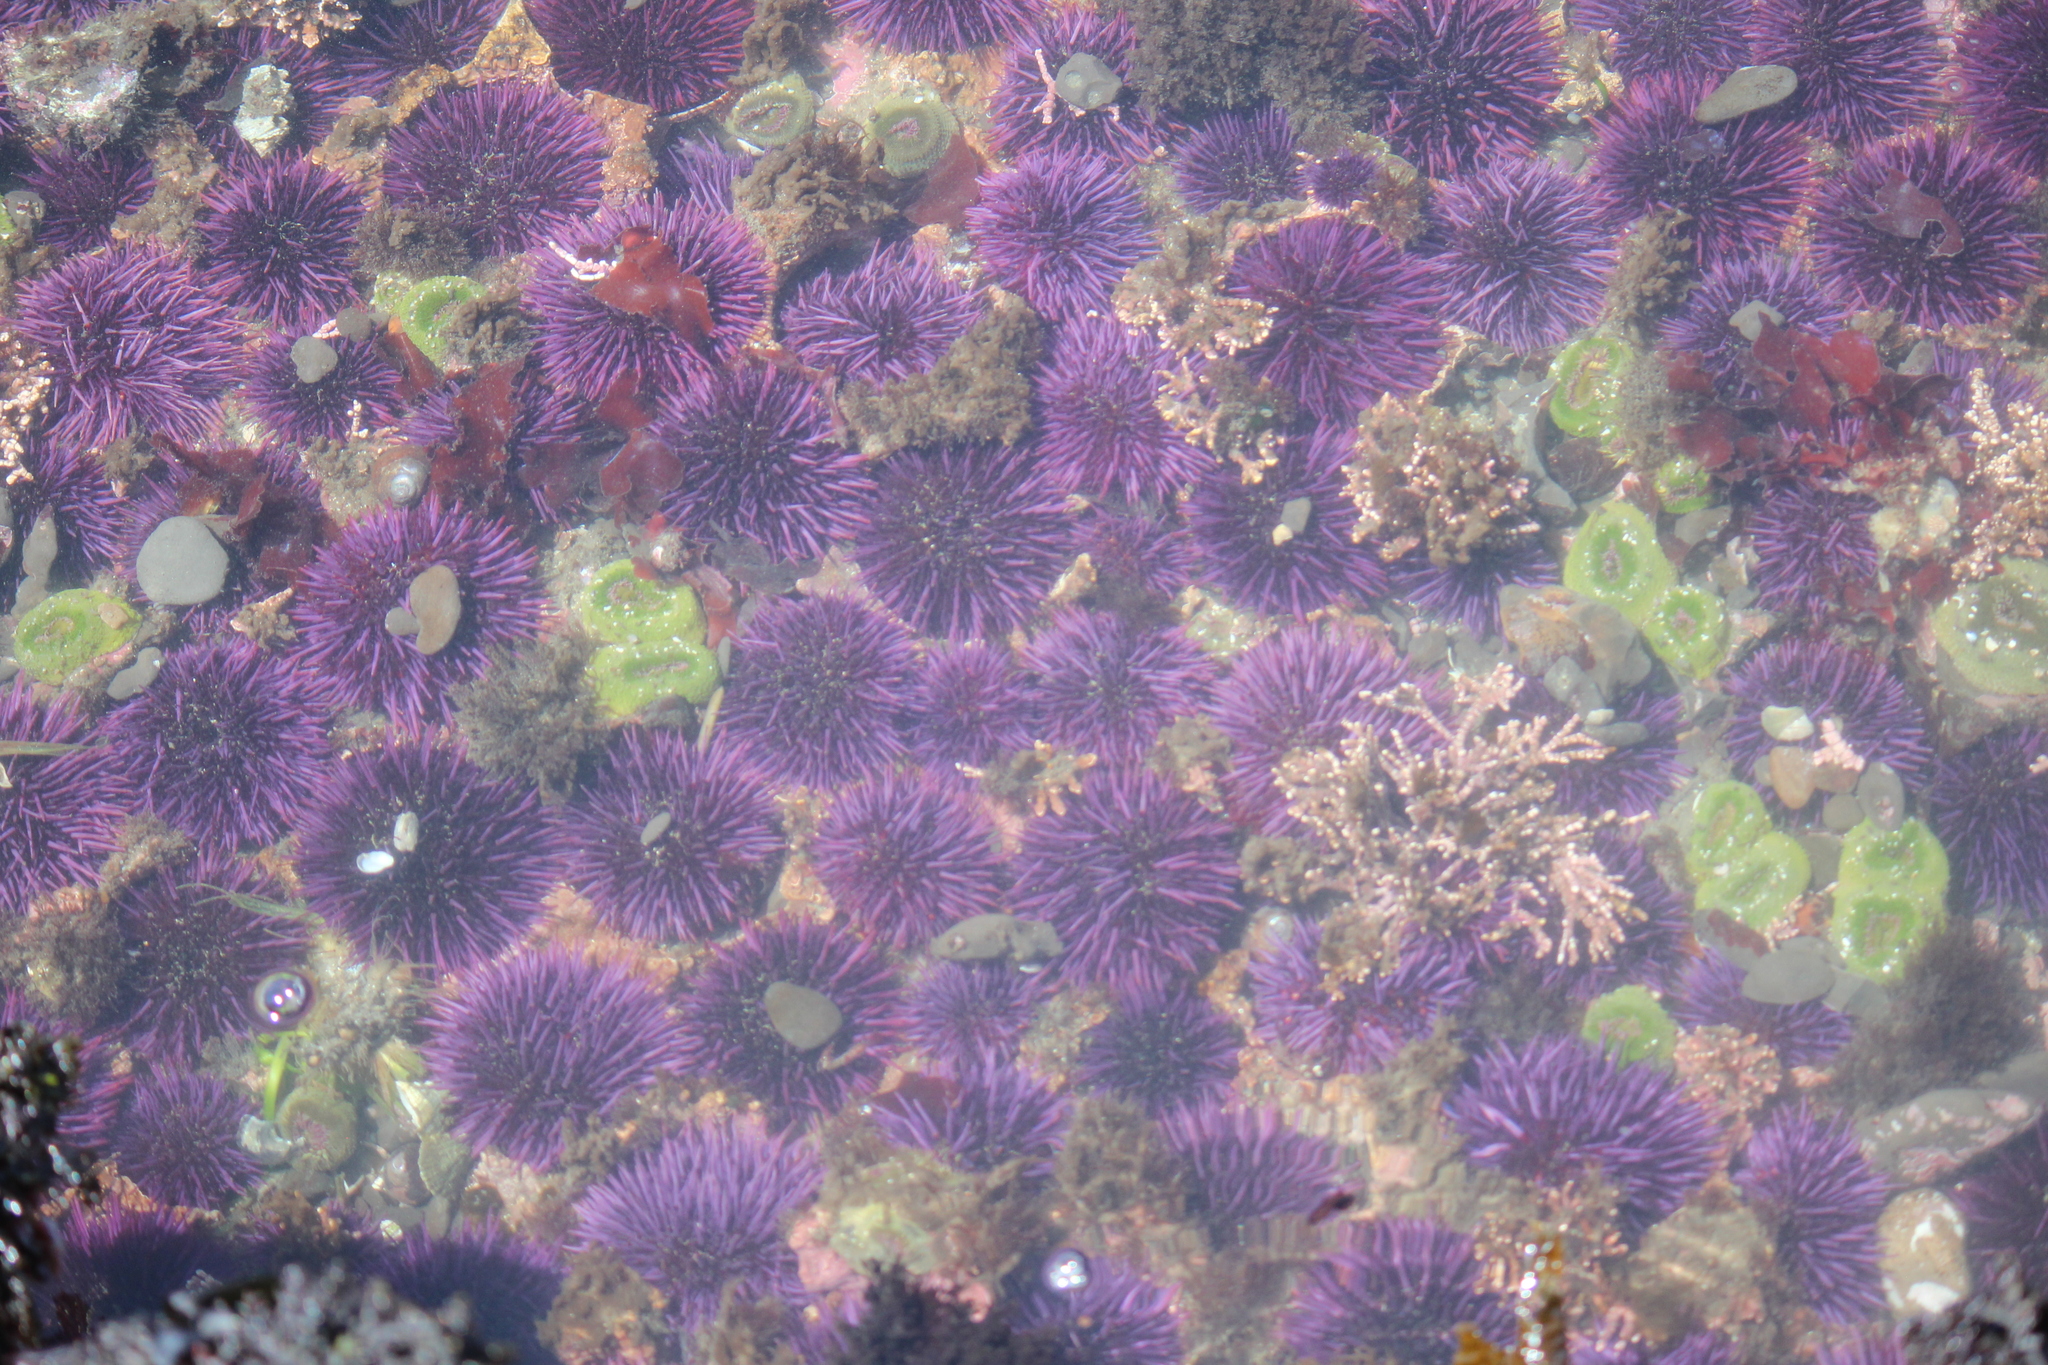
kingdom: Animalia
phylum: Echinodermata
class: Echinoidea
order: Camarodonta
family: Strongylocentrotidae
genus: Strongylocentrotus
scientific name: Strongylocentrotus purpuratus
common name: Purple sea urchin
